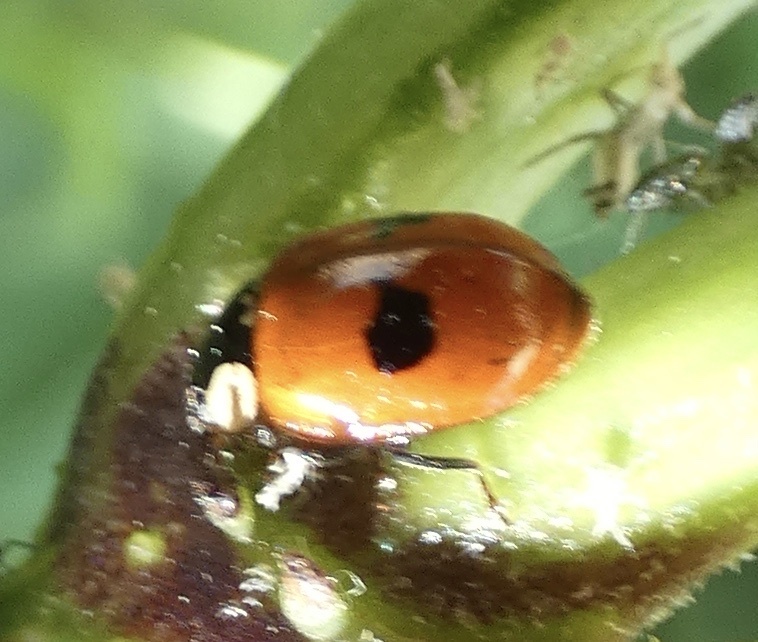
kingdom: Animalia
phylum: Arthropoda
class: Insecta
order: Coleoptera
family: Coccinellidae
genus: Adalia
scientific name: Adalia bipunctata
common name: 2-spot ladybird
